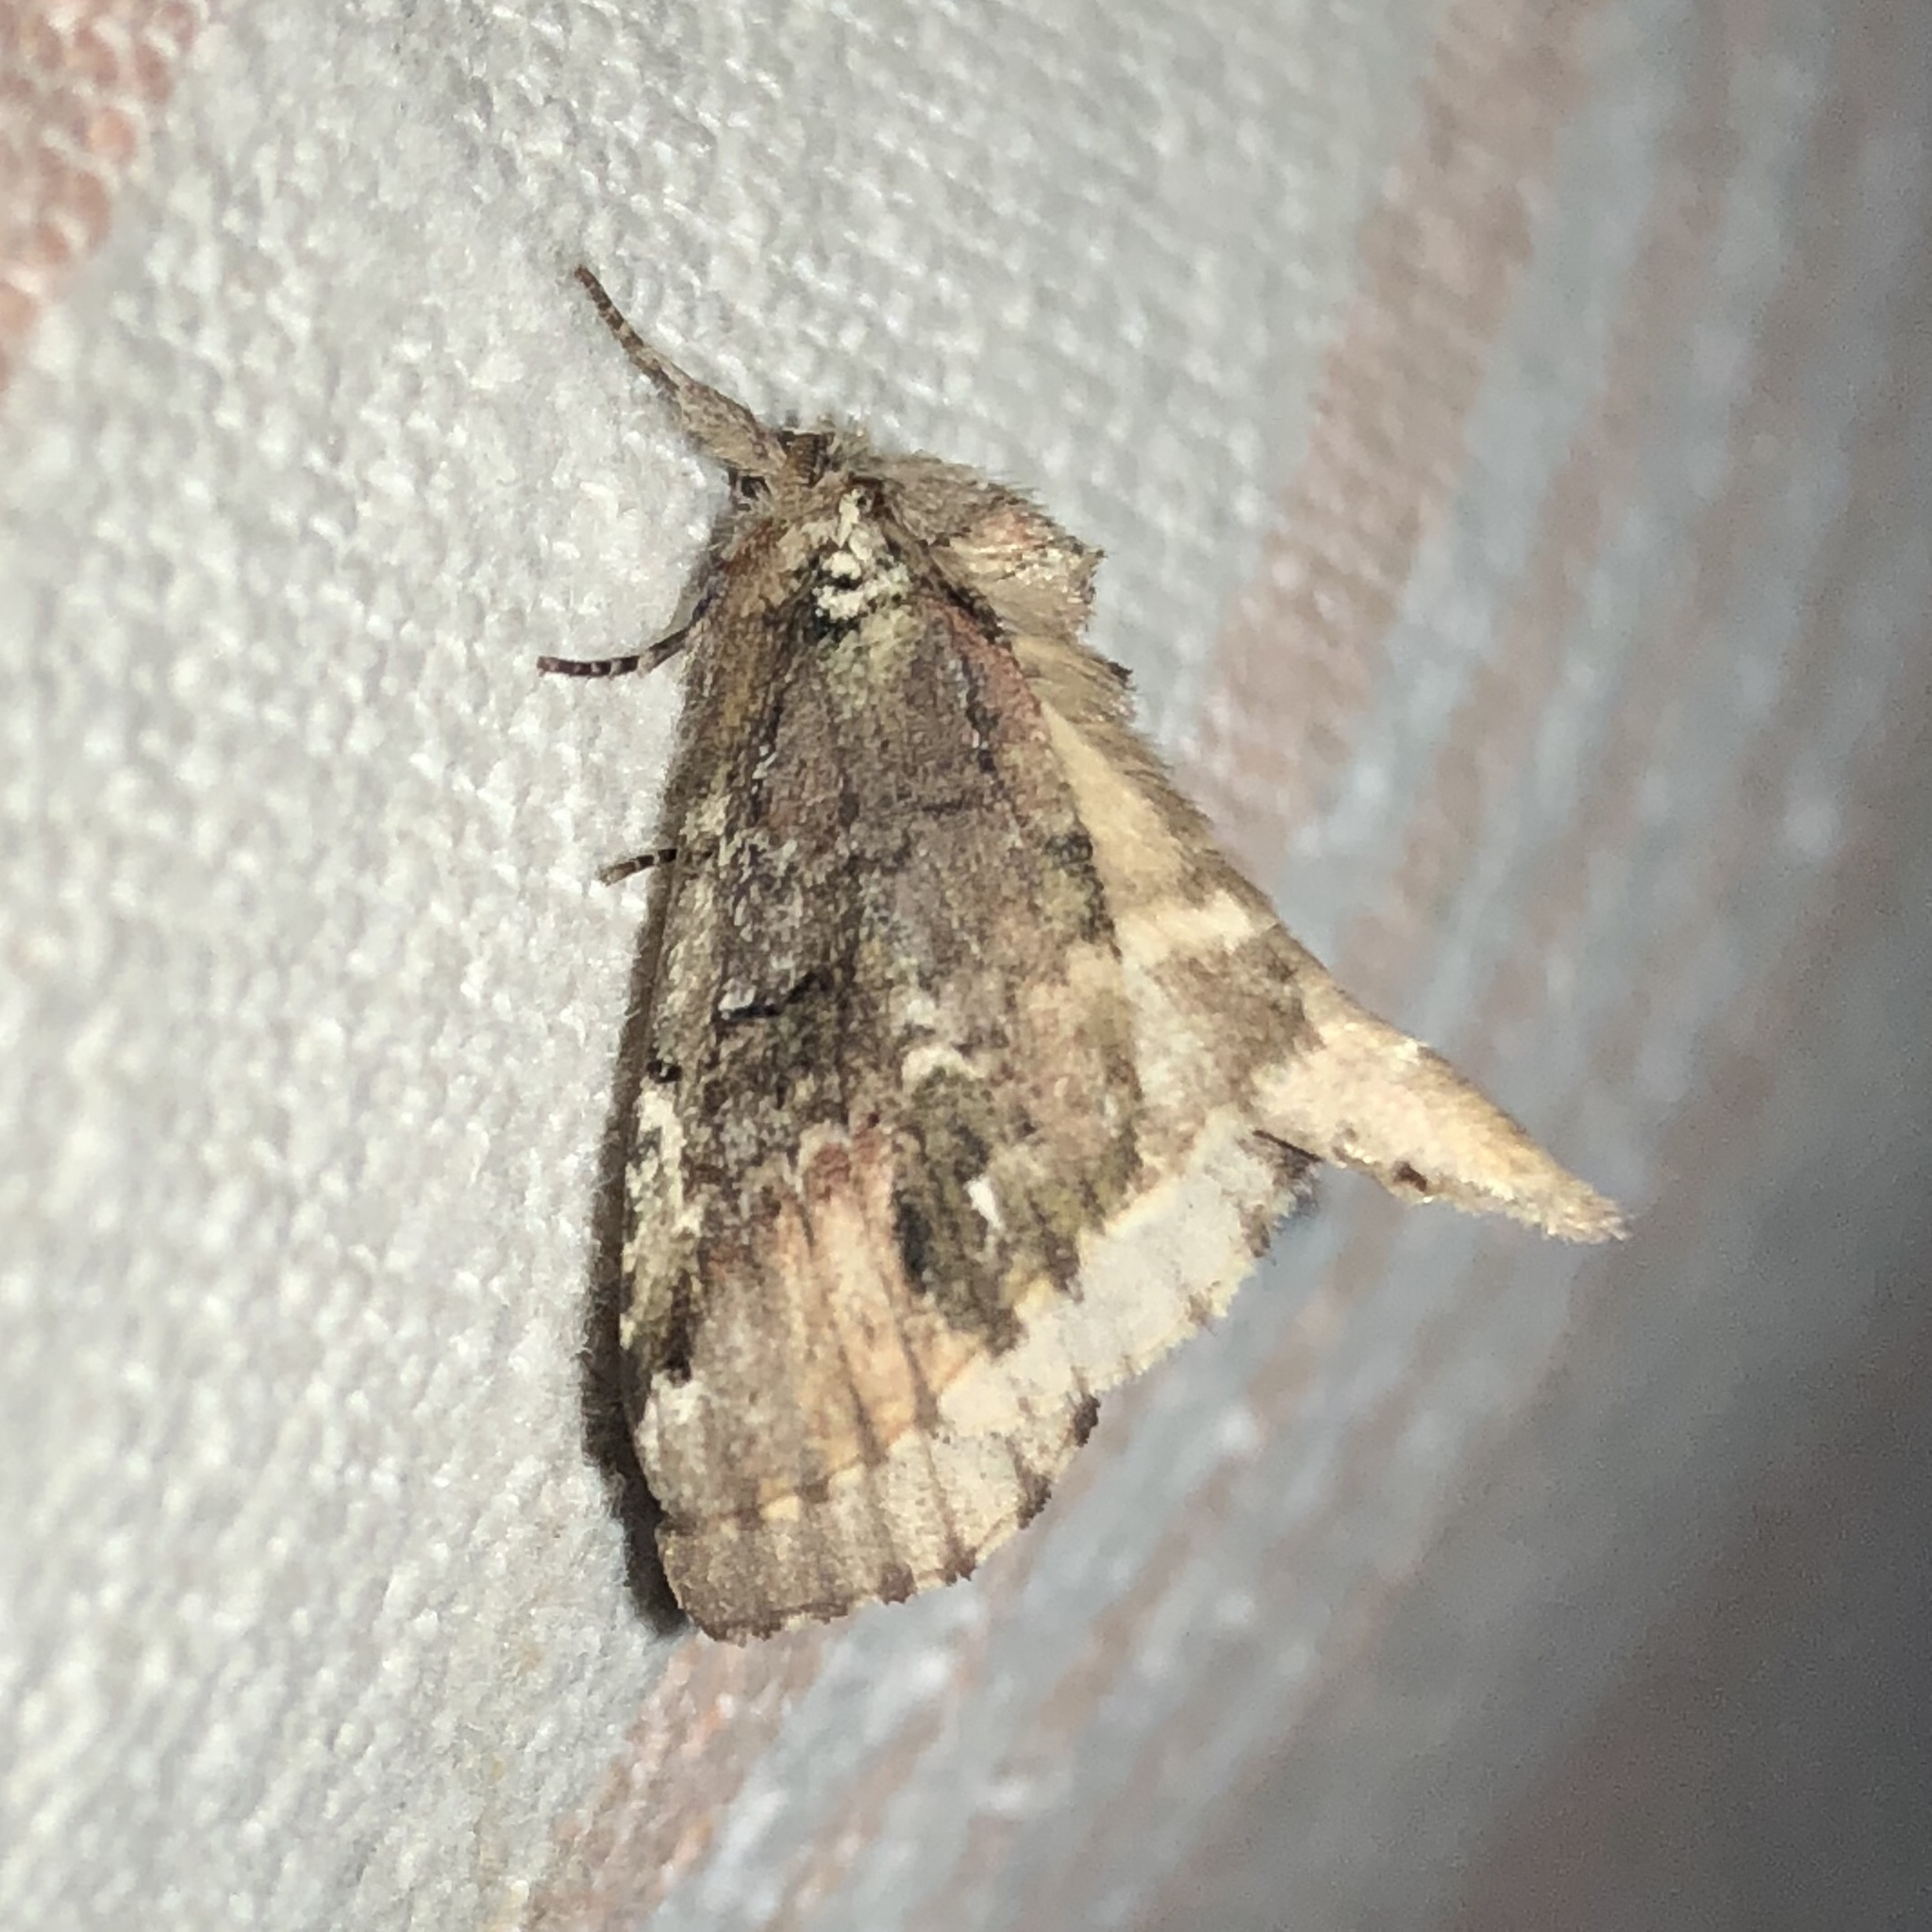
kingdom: Animalia
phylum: Arthropoda
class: Insecta
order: Lepidoptera
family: Notodontidae
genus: Schizura
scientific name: Schizura
